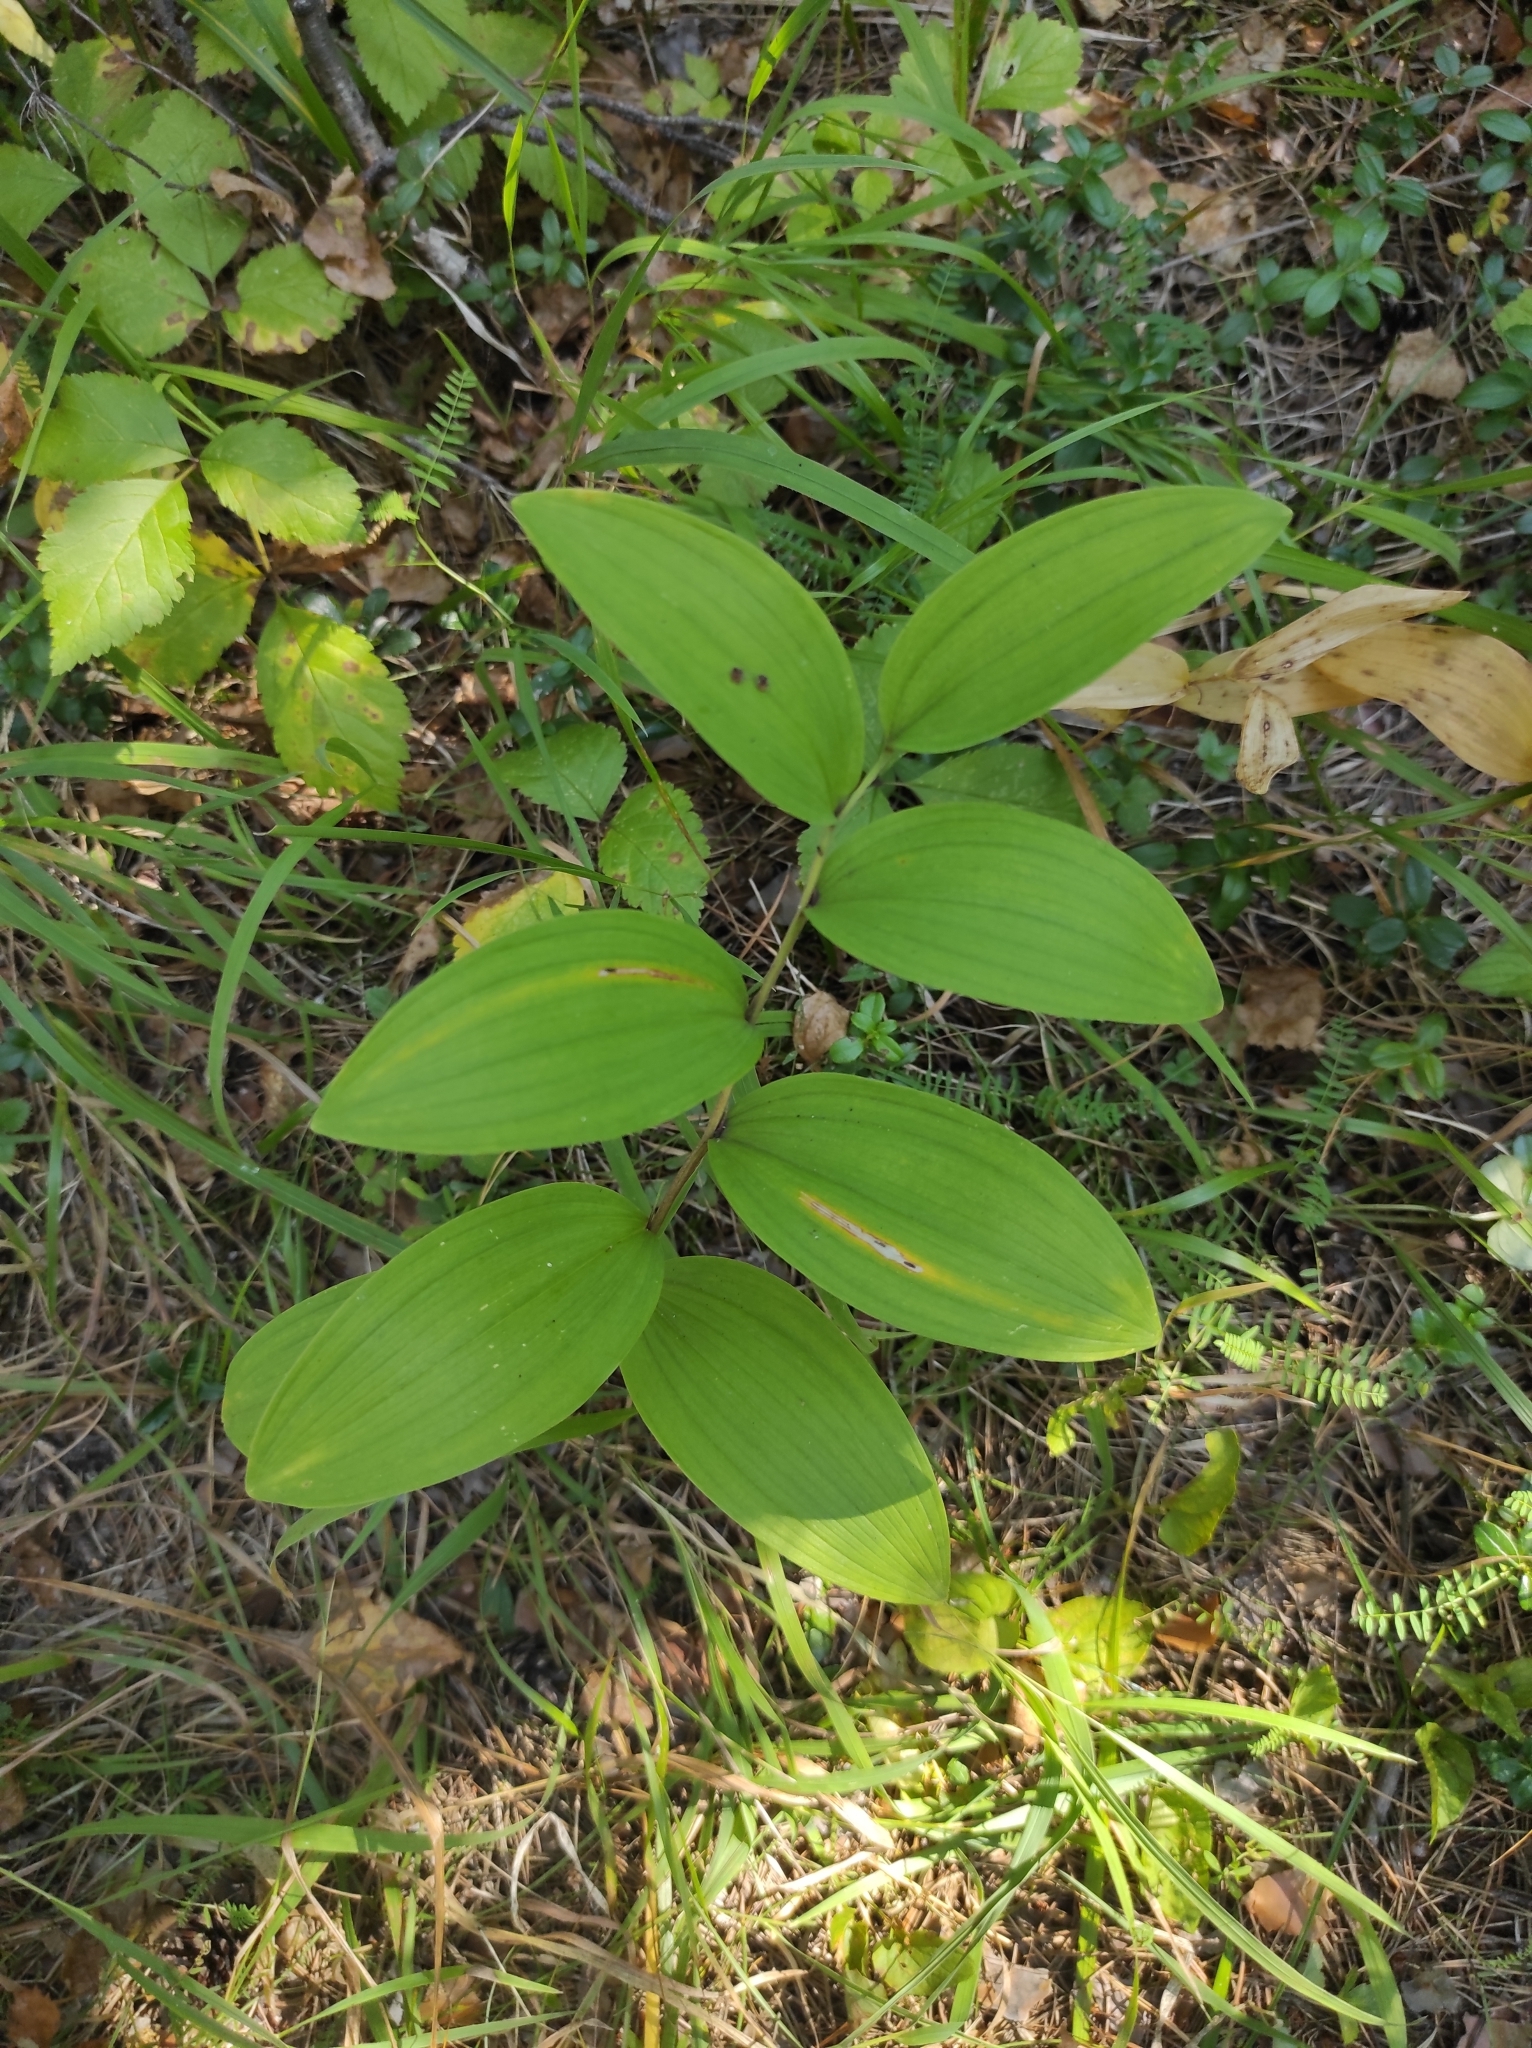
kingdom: Plantae
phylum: Tracheophyta
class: Liliopsida
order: Asparagales
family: Asparagaceae
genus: Polygonatum
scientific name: Polygonatum odoratum
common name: Angular solomon's-seal
